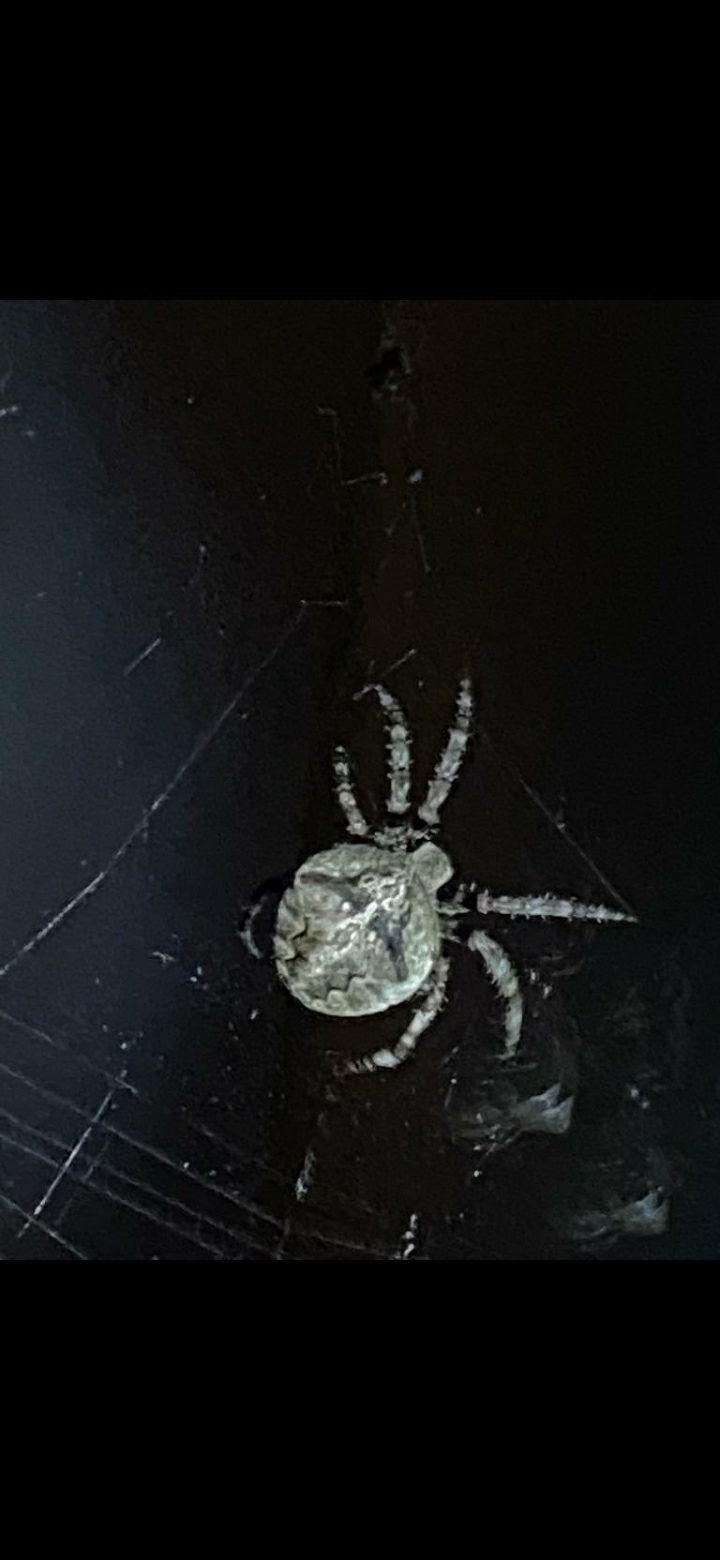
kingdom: Animalia
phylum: Arthropoda
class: Arachnida
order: Araneae
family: Araneidae
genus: Araneus
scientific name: Araneus angulatus
